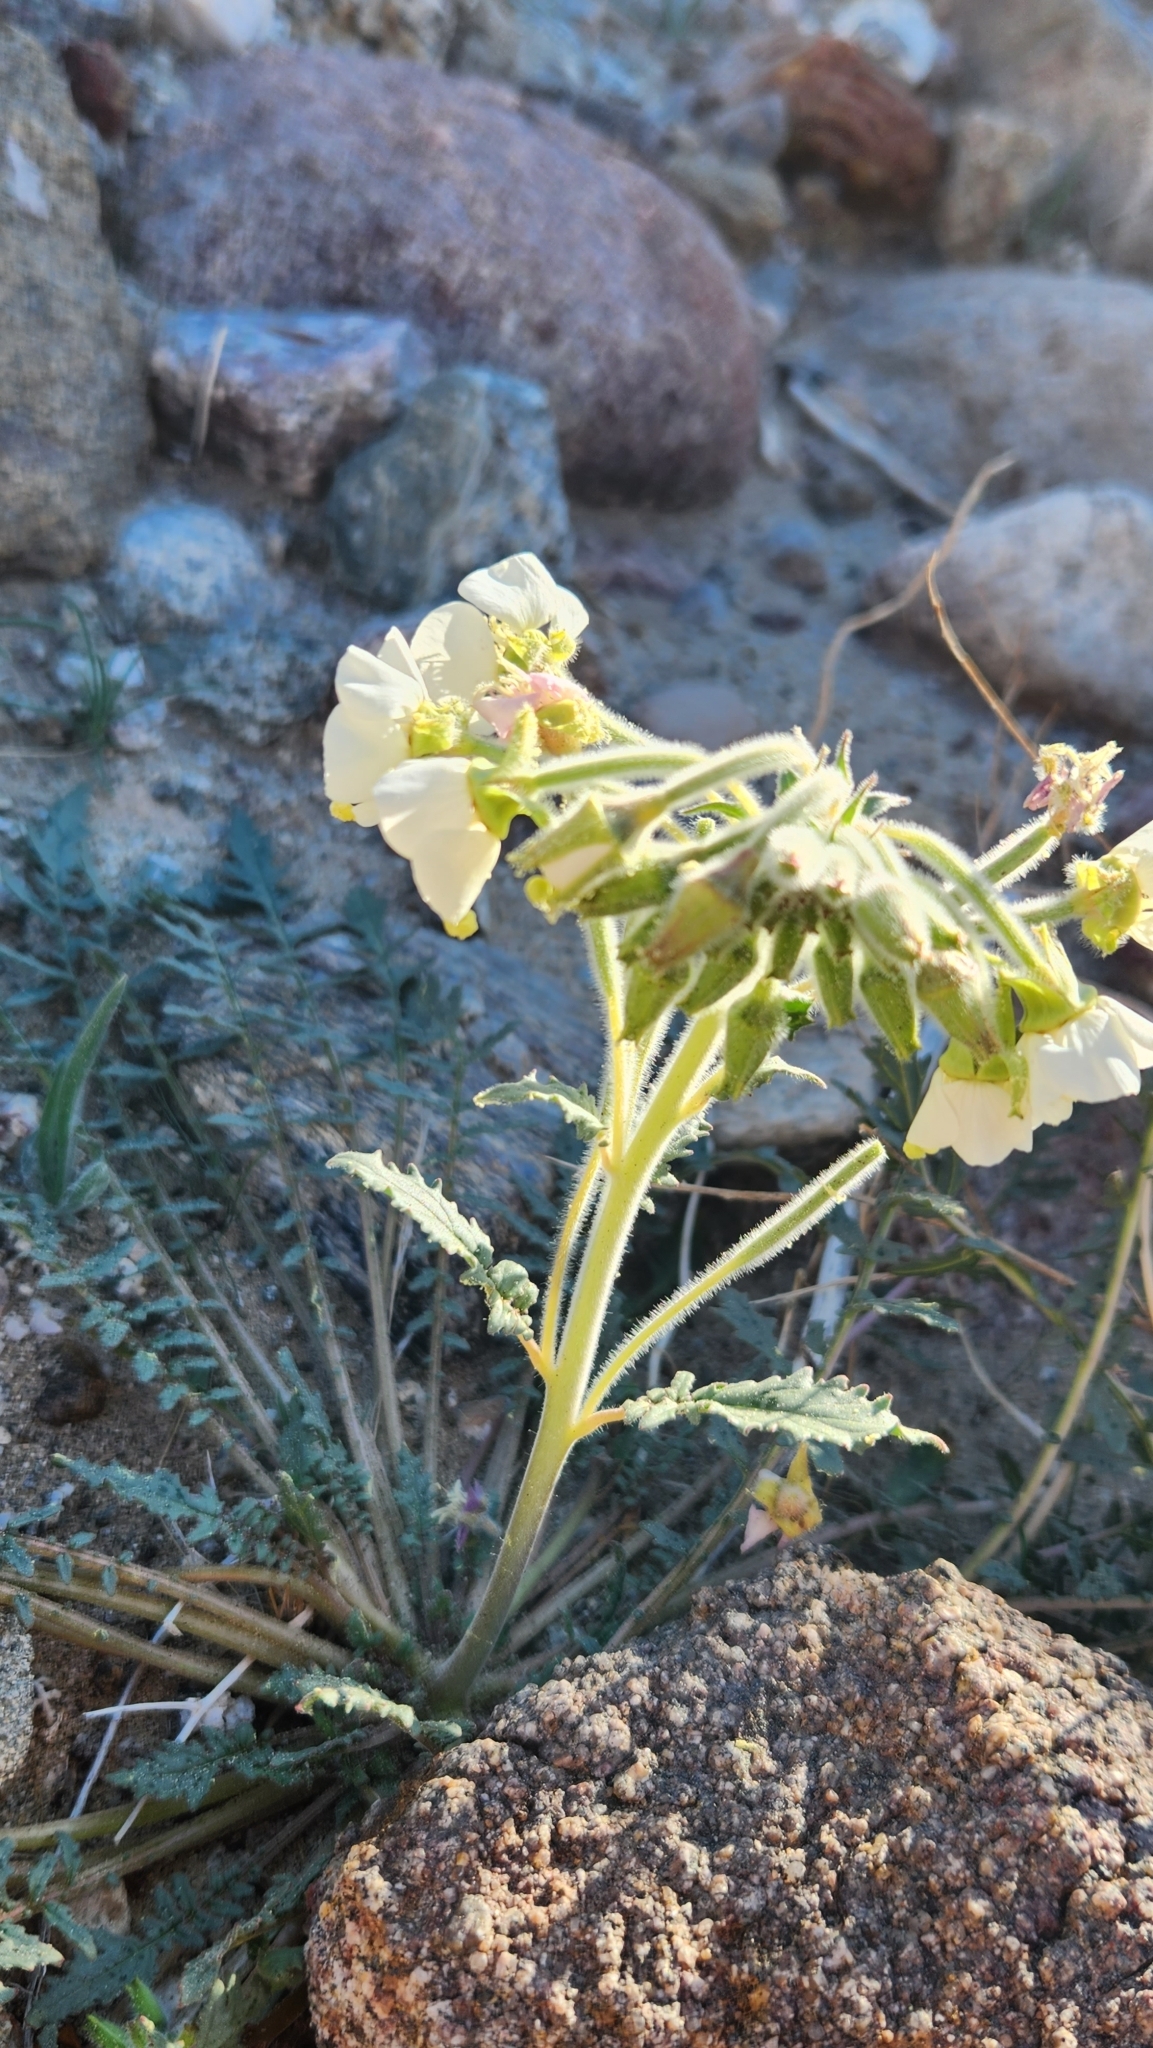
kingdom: Plantae
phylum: Tracheophyta
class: Magnoliopsida
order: Myrtales
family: Onagraceae
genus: Chylismia
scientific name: Chylismia claviformis
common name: Browneyes
